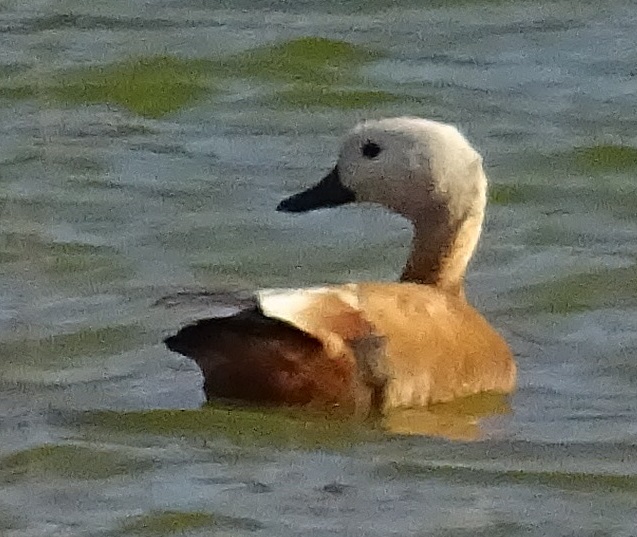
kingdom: Animalia
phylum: Chordata
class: Aves
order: Anseriformes
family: Anatidae
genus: Tadorna
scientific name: Tadorna ferruginea
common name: Ruddy shelduck
